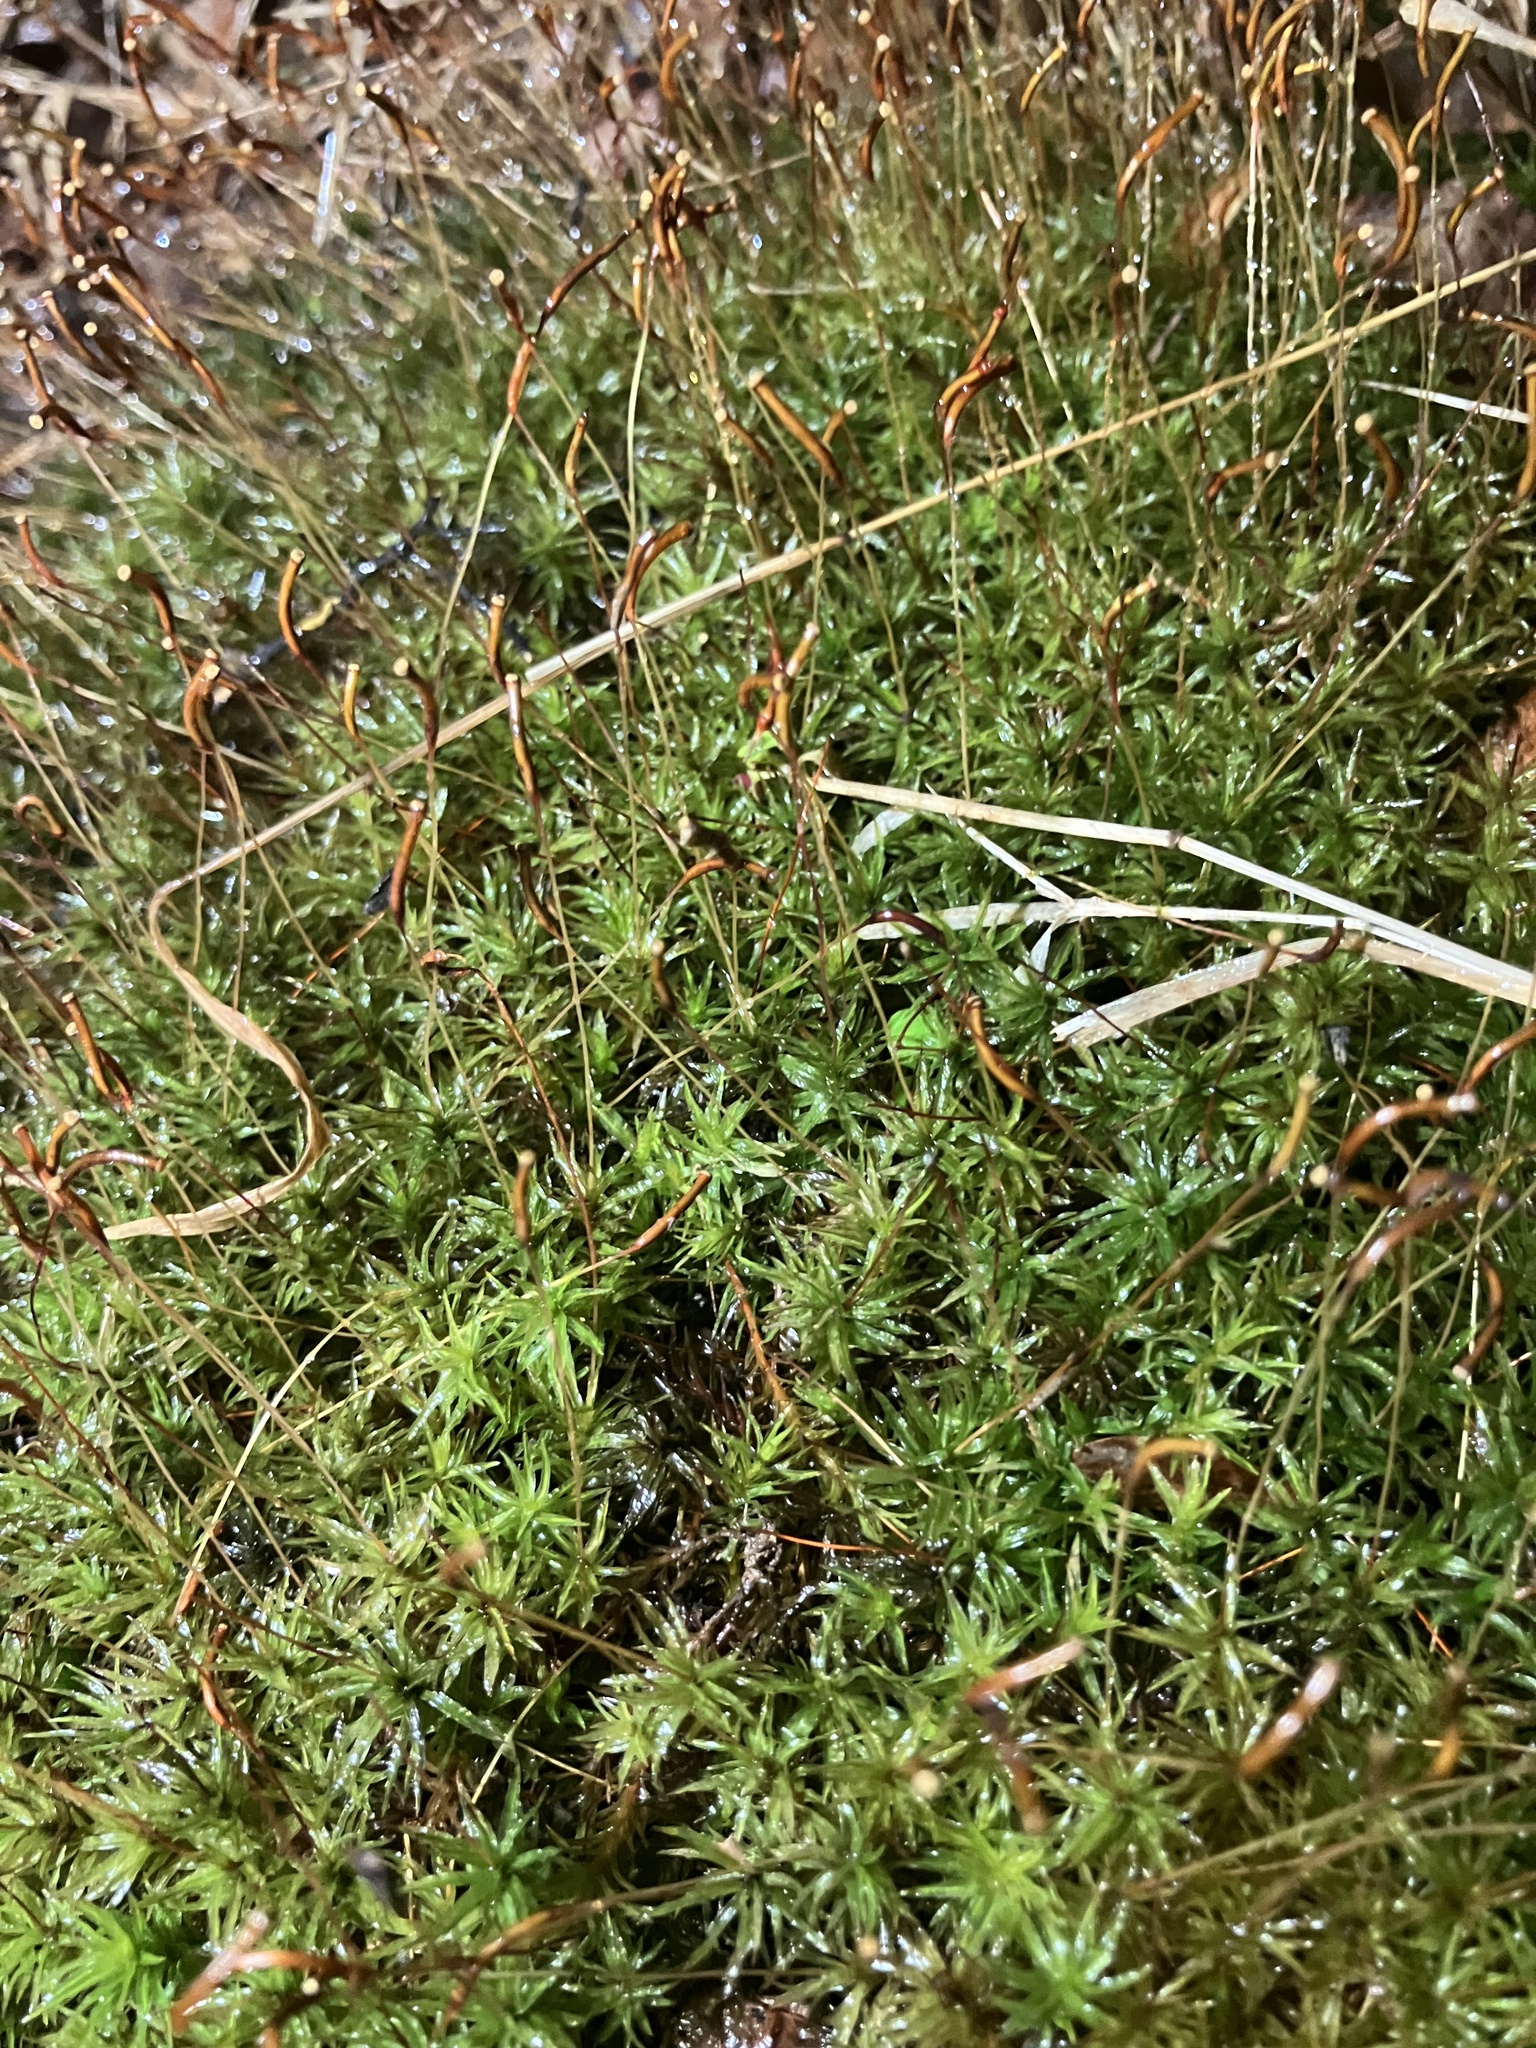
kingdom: Plantae
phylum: Bryophyta
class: Polytrichopsida
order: Polytrichales
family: Polytrichaceae
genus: Atrichum
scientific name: Atrichum angustatum
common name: Lesser smoothcap
